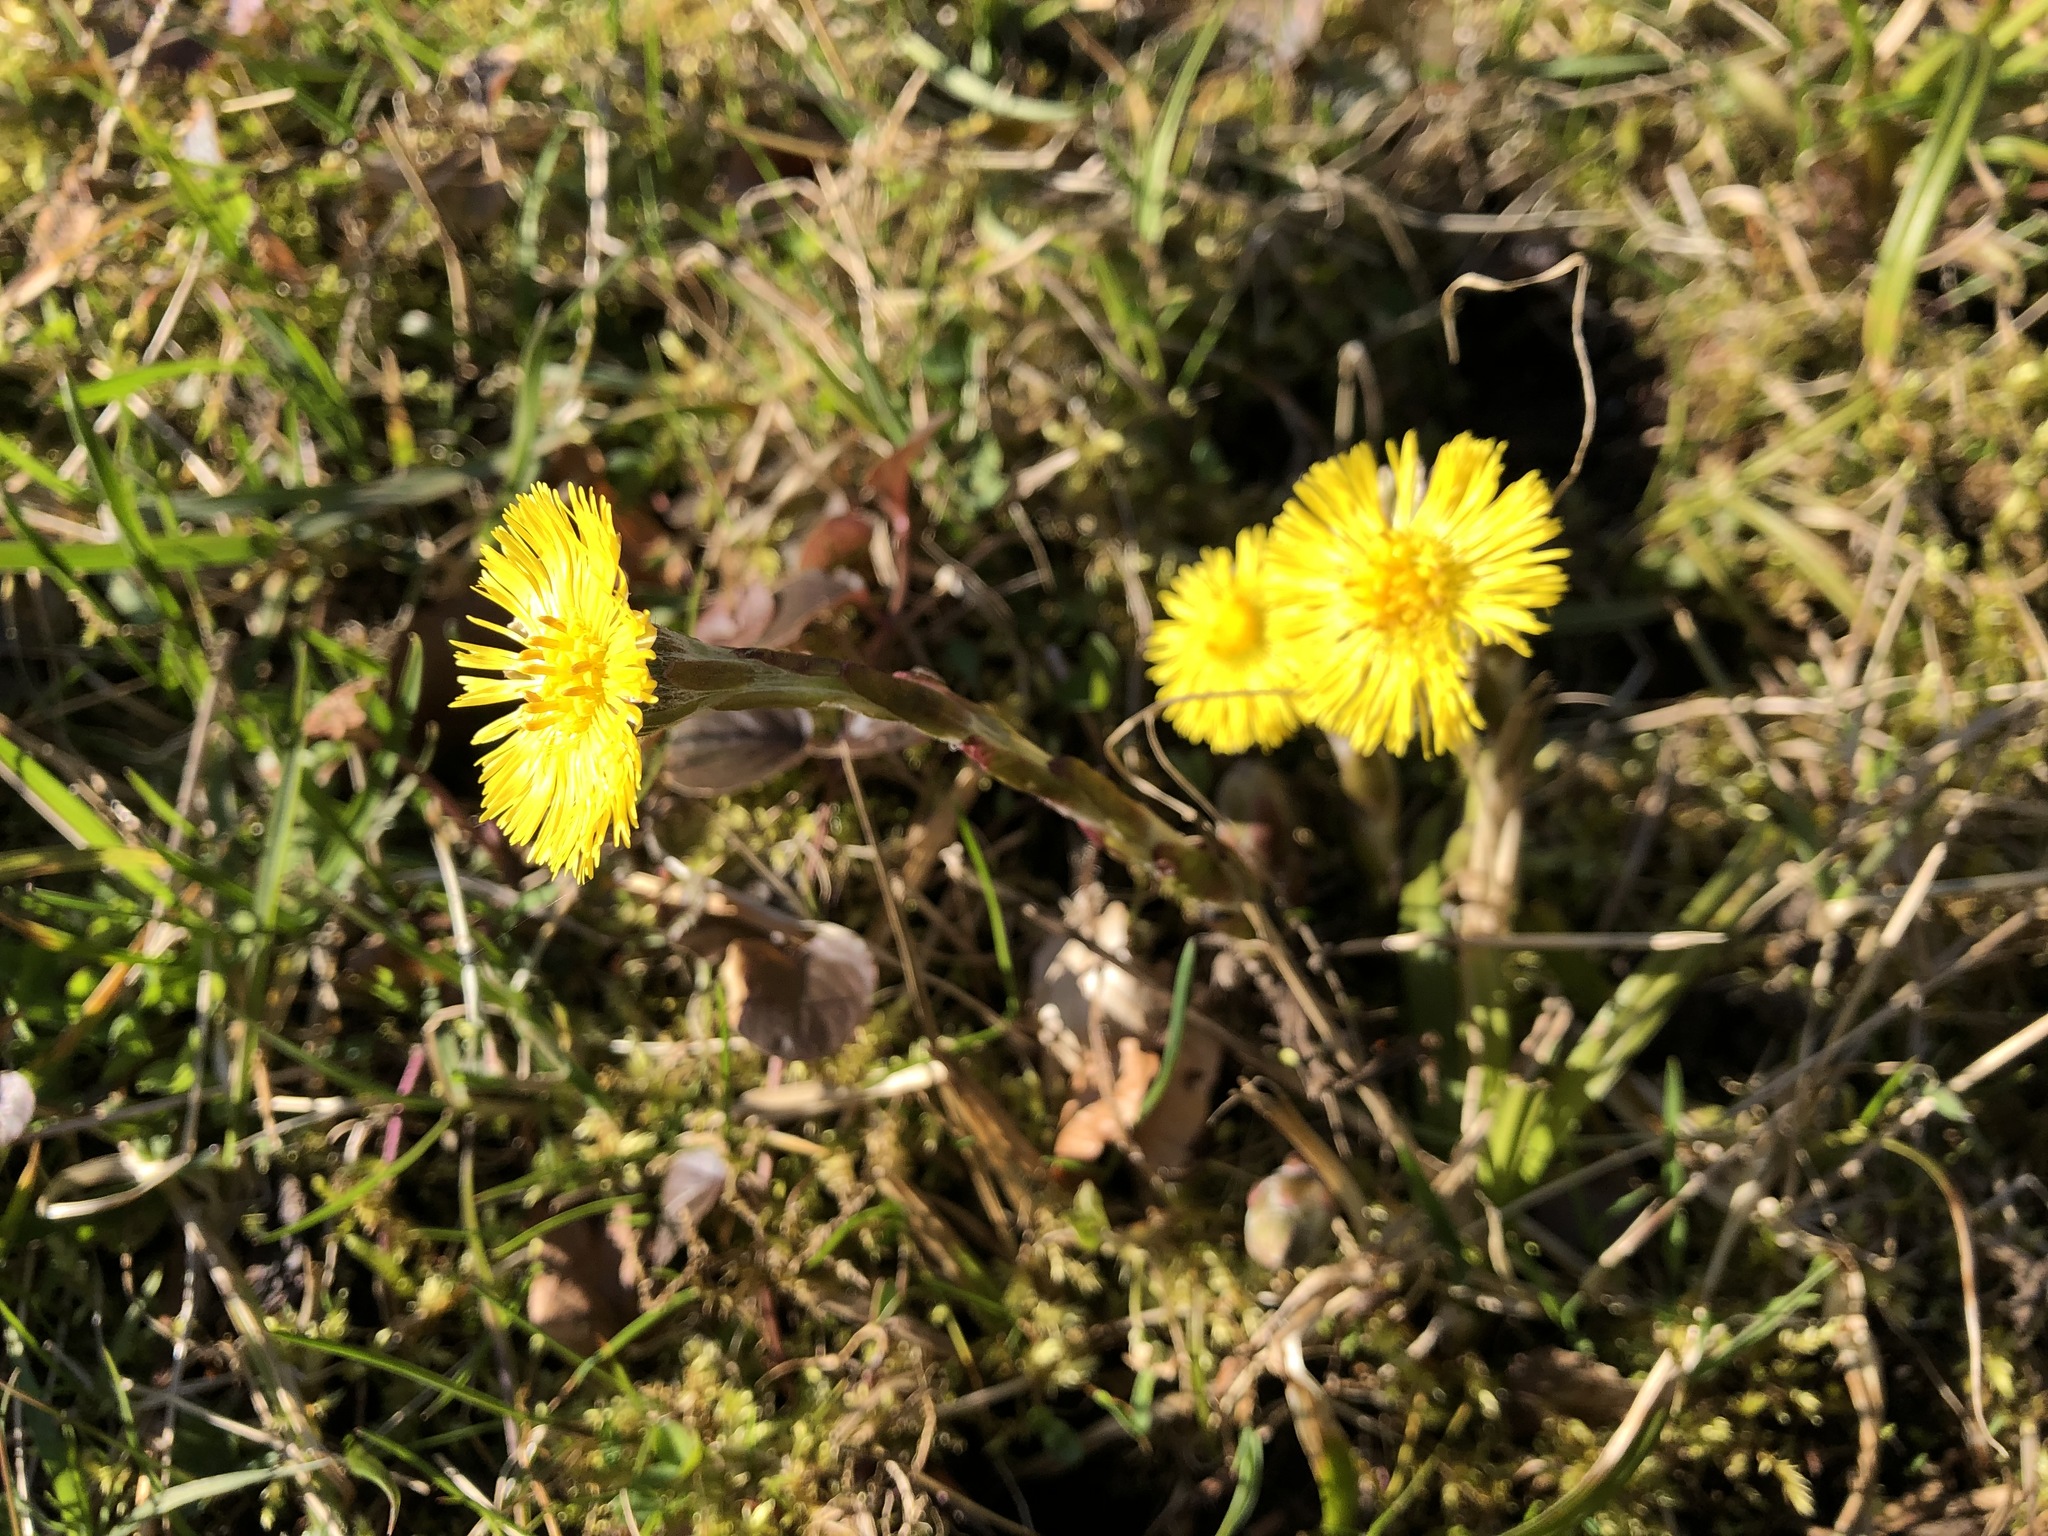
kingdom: Plantae
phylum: Tracheophyta
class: Magnoliopsida
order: Asterales
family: Asteraceae
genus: Tussilago
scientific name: Tussilago farfara
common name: Coltsfoot
